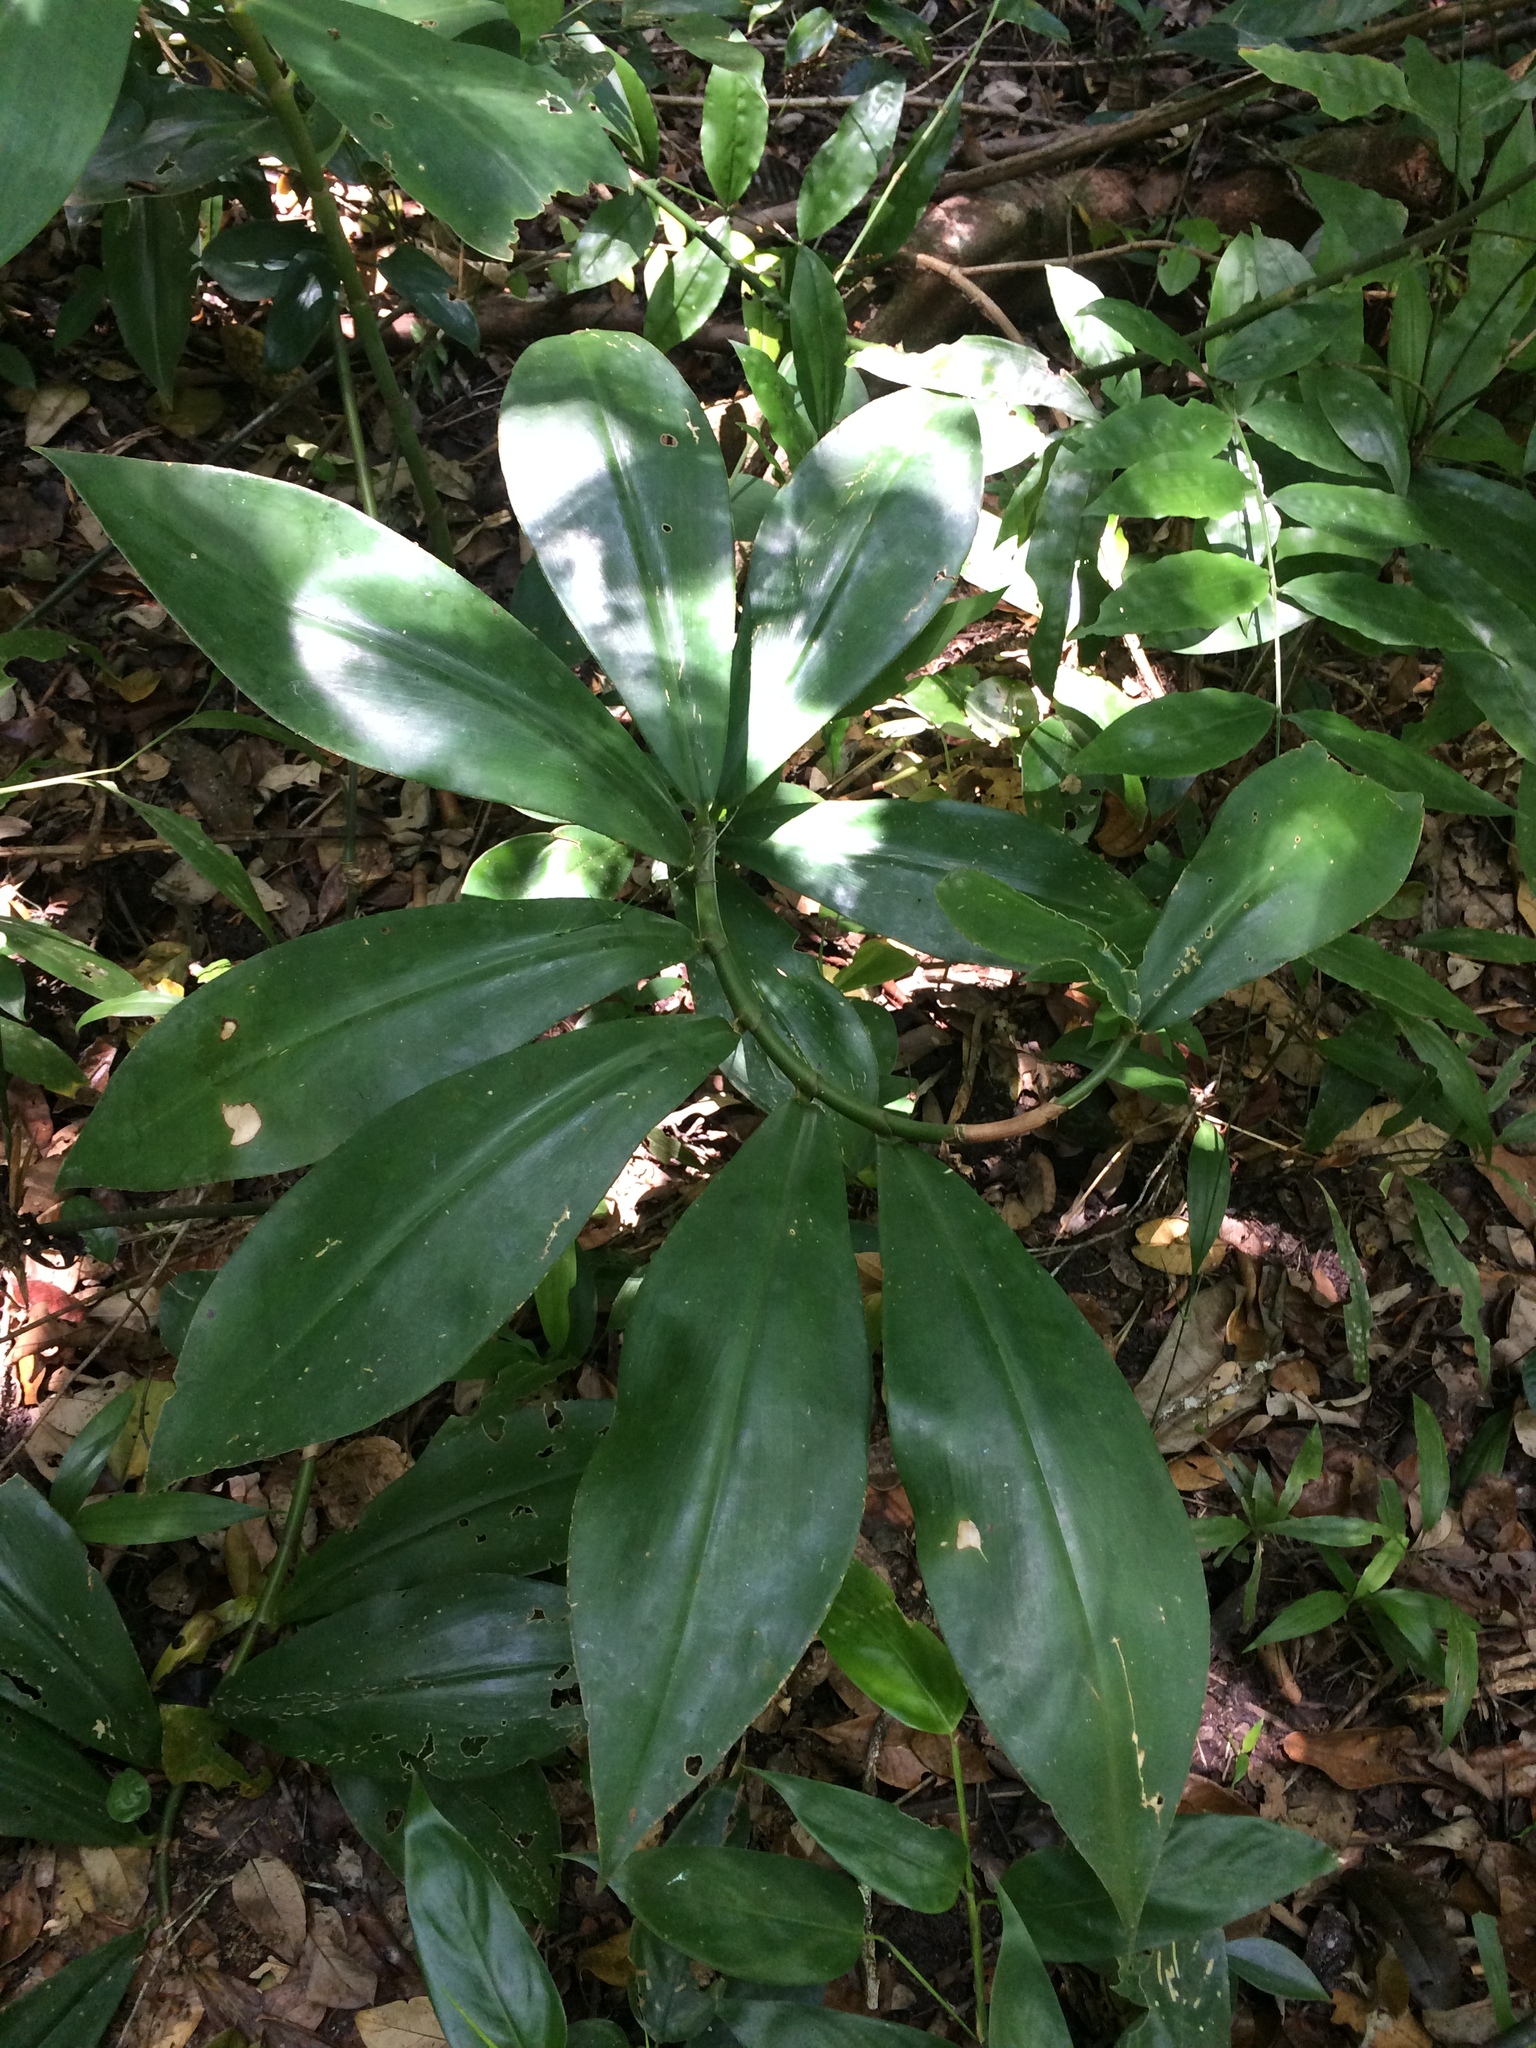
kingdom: Plantae
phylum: Tracheophyta
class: Liliopsida
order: Zingiberales
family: Costaceae
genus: Costus
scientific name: Costus
